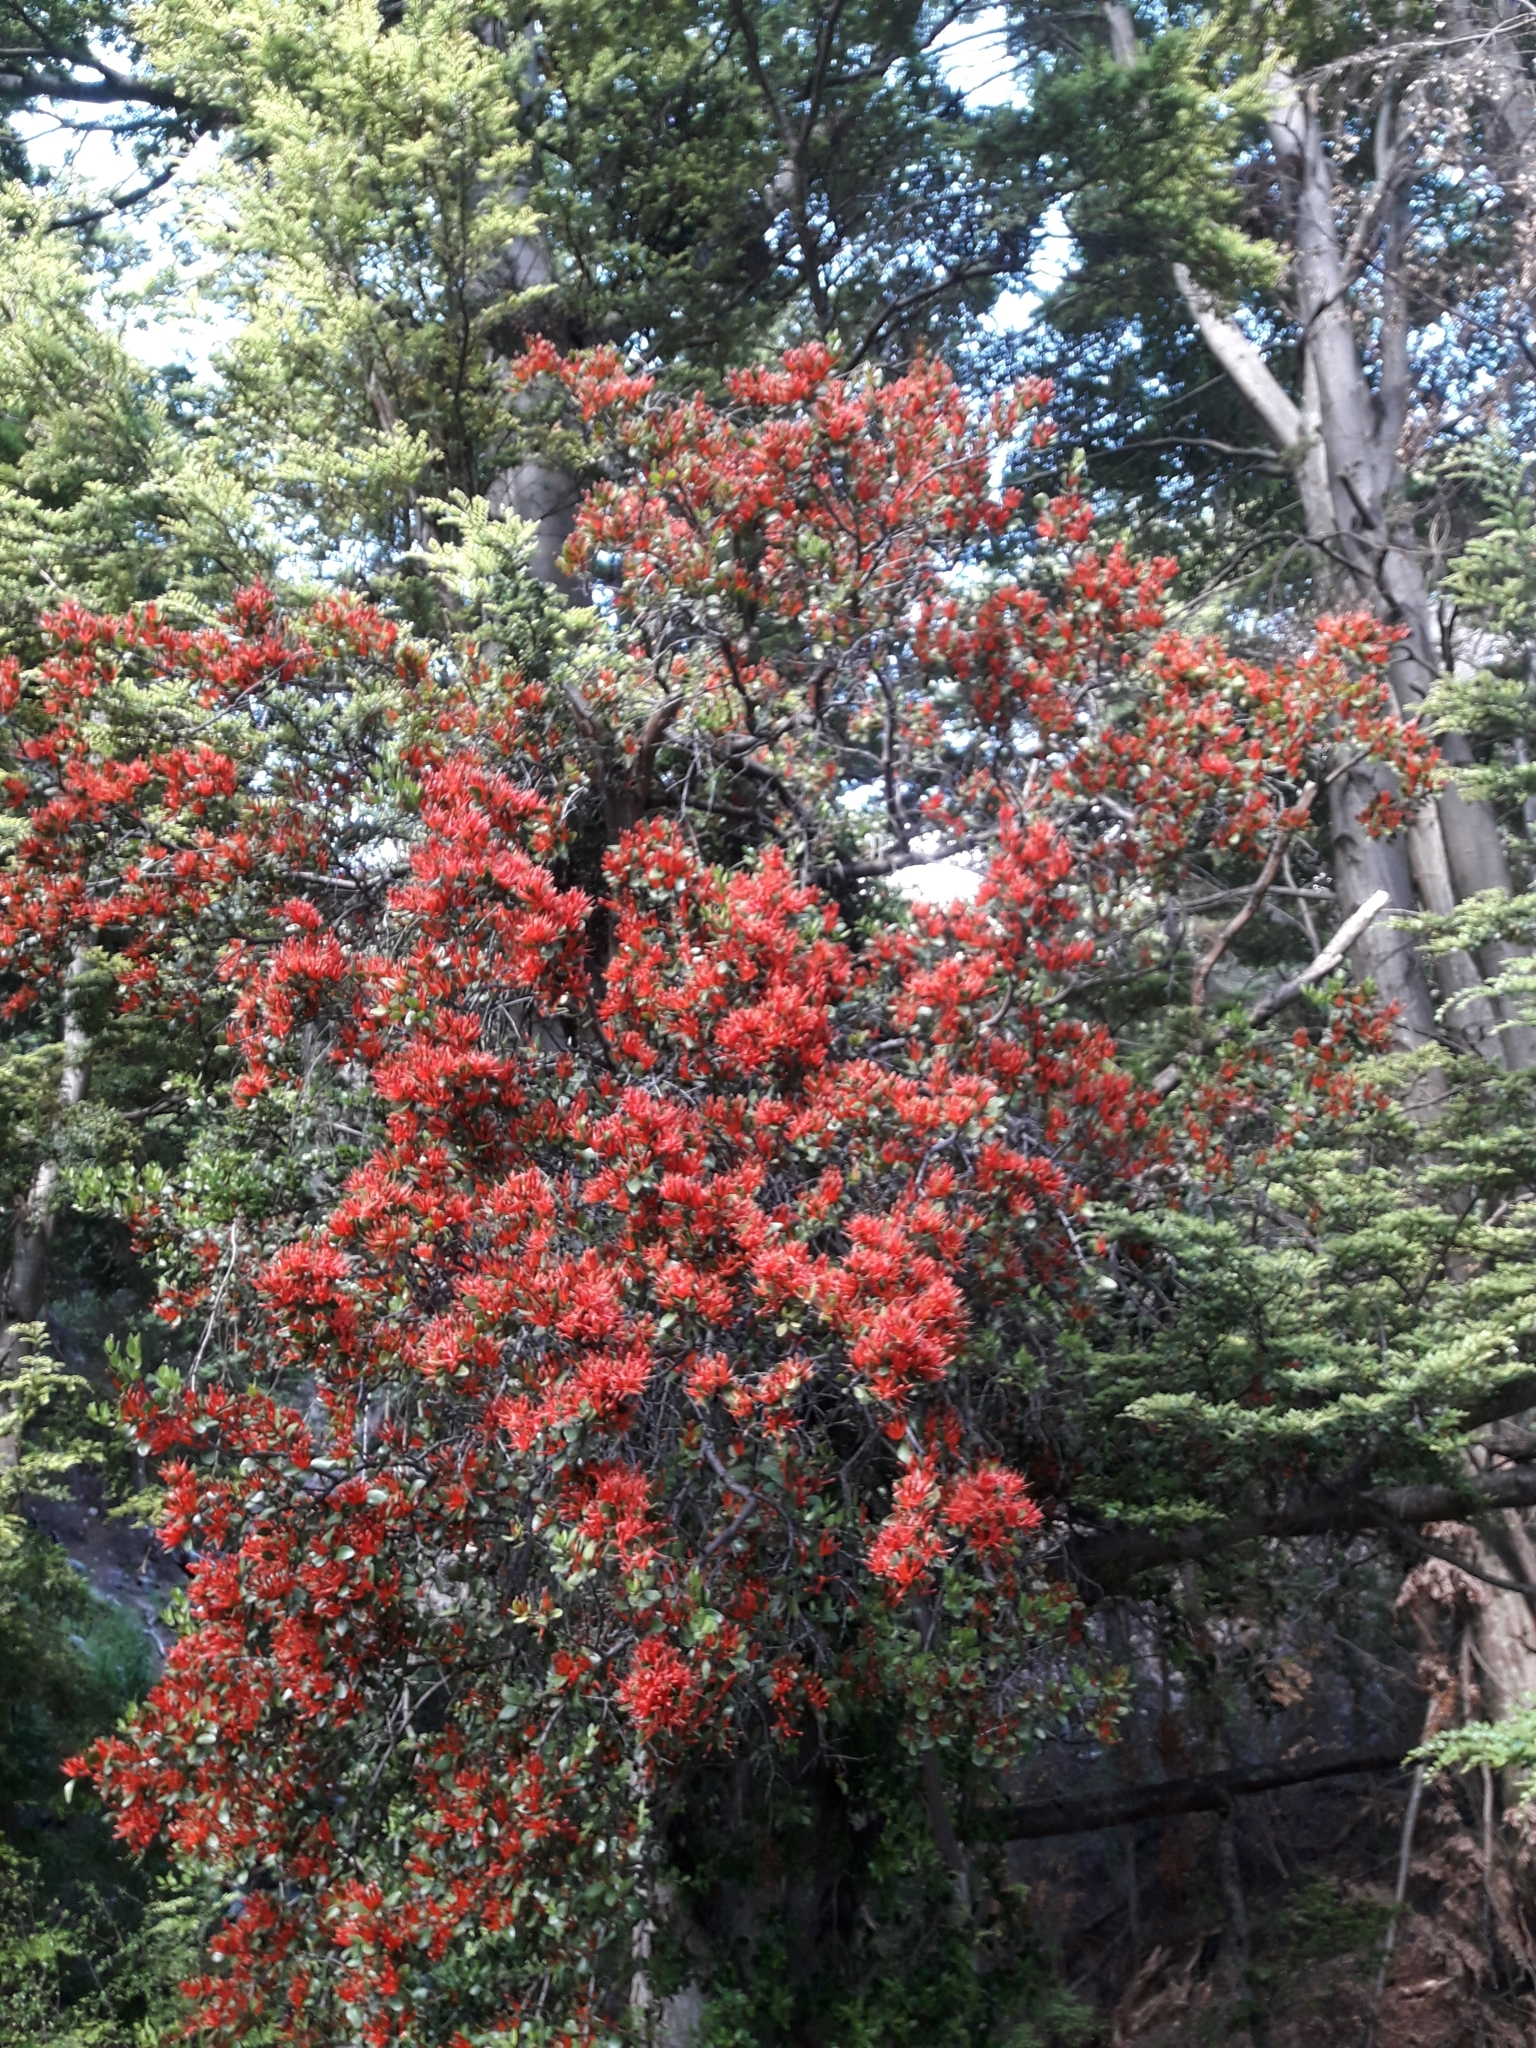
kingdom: Plantae
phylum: Tracheophyta
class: Magnoliopsida
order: Santalales
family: Loranthaceae
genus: Peraxilla
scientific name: Peraxilla tetrapetala
